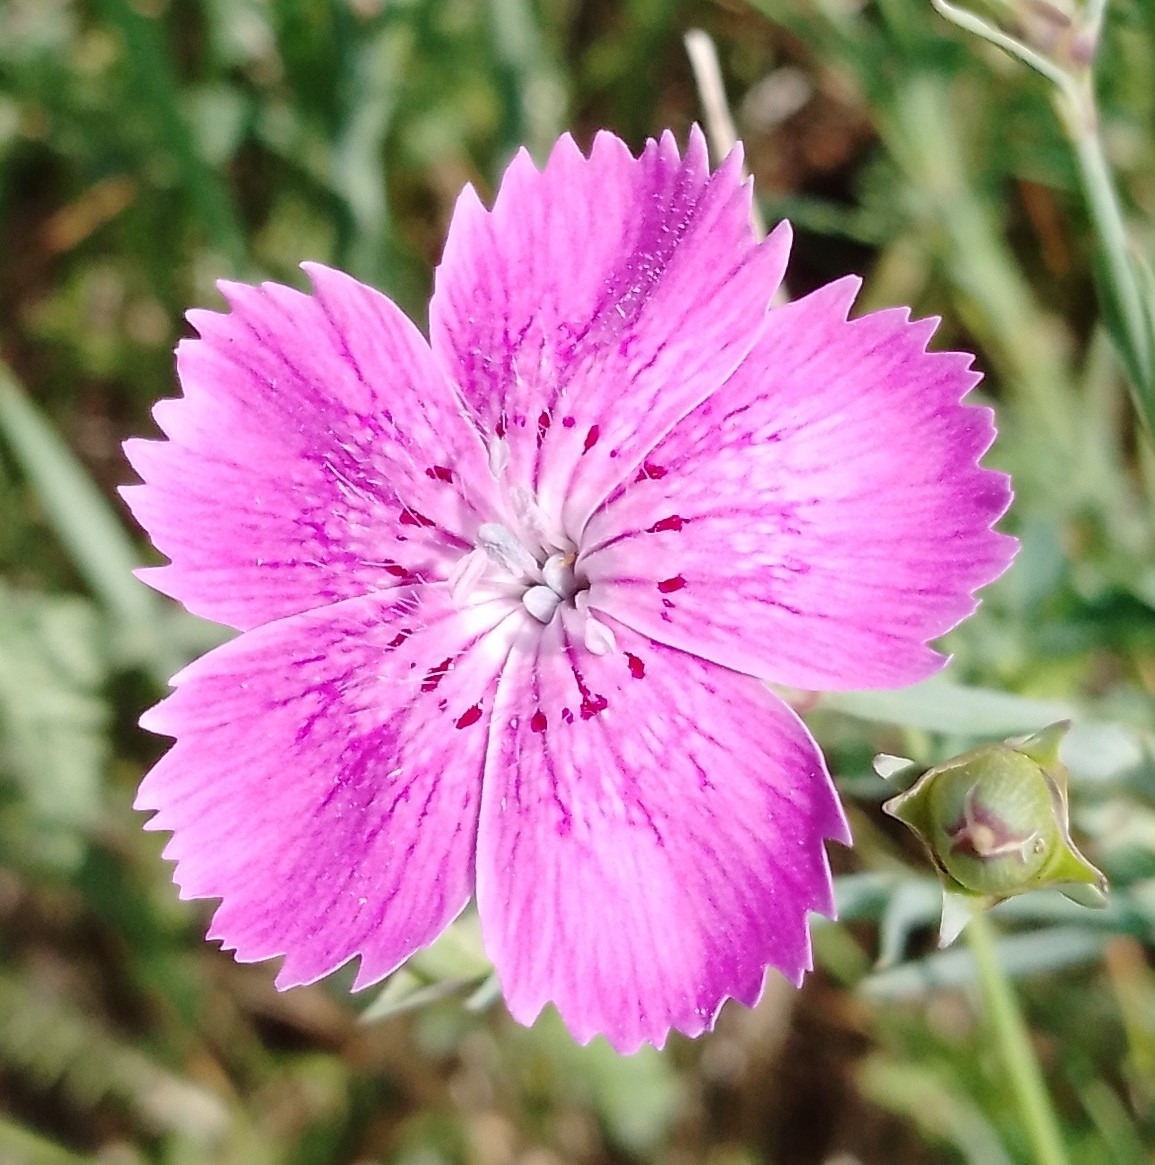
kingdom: Plantae
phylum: Tracheophyta
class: Magnoliopsida
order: Caryophyllales
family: Caryophyllaceae
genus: Dianthus
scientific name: Dianthus chinensis
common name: Rainbow pink
